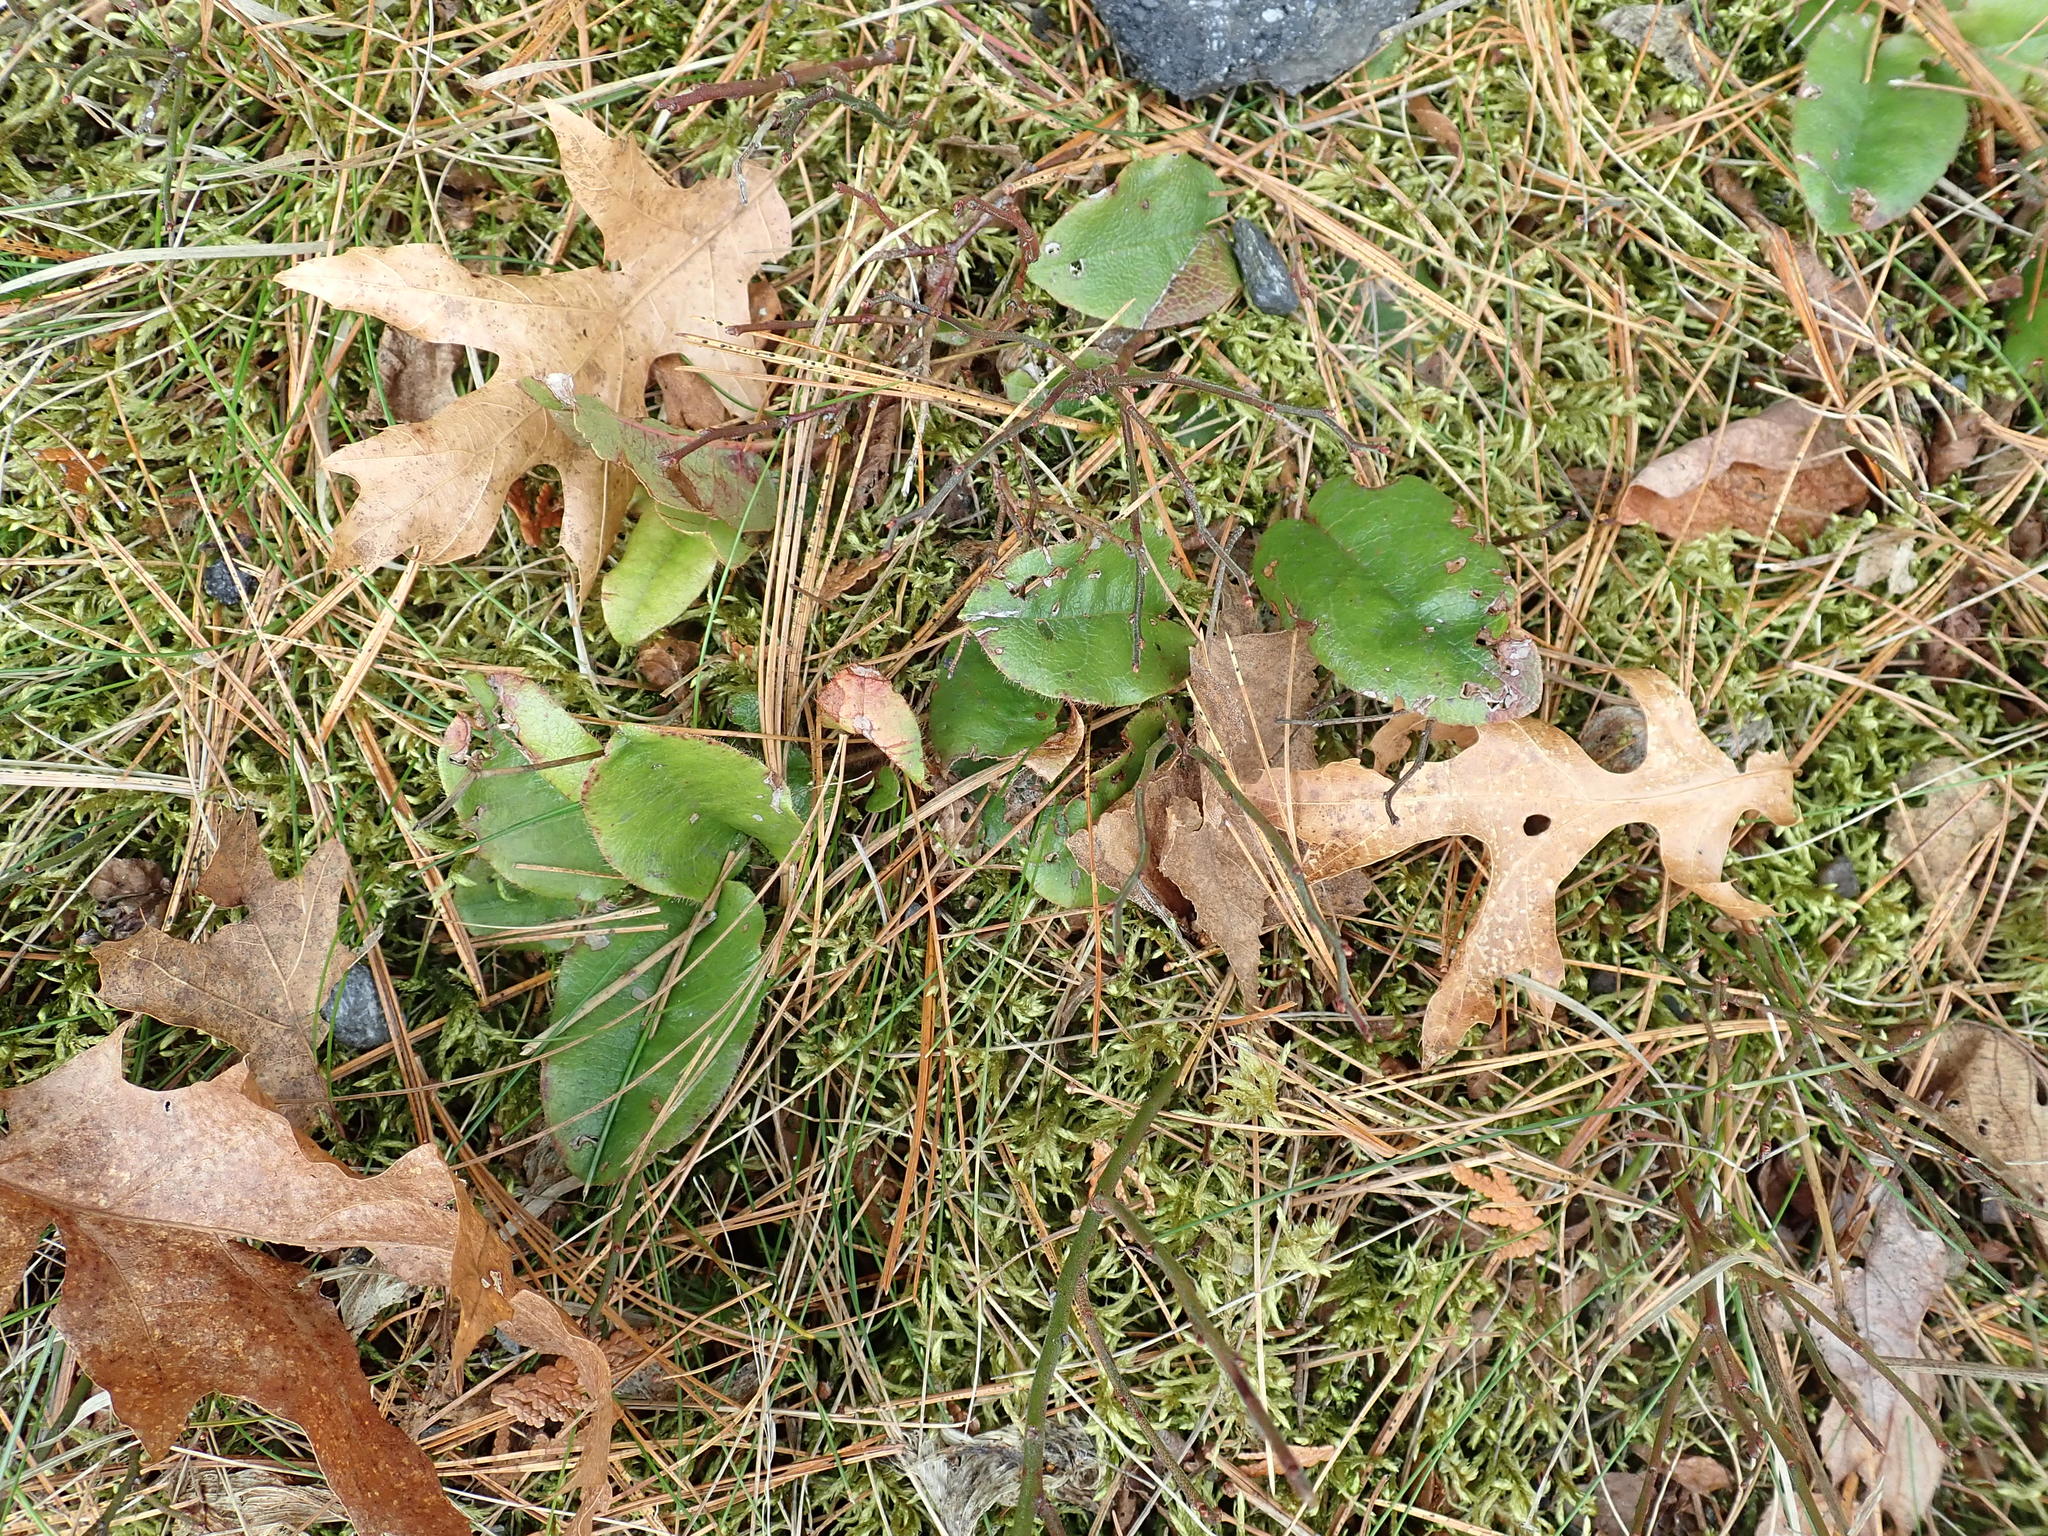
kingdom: Plantae
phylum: Tracheophyta
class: Magnoliopsida
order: Ericales
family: Ericaceae
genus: Epigaea
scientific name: Epigaea repens
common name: Gravelroot
